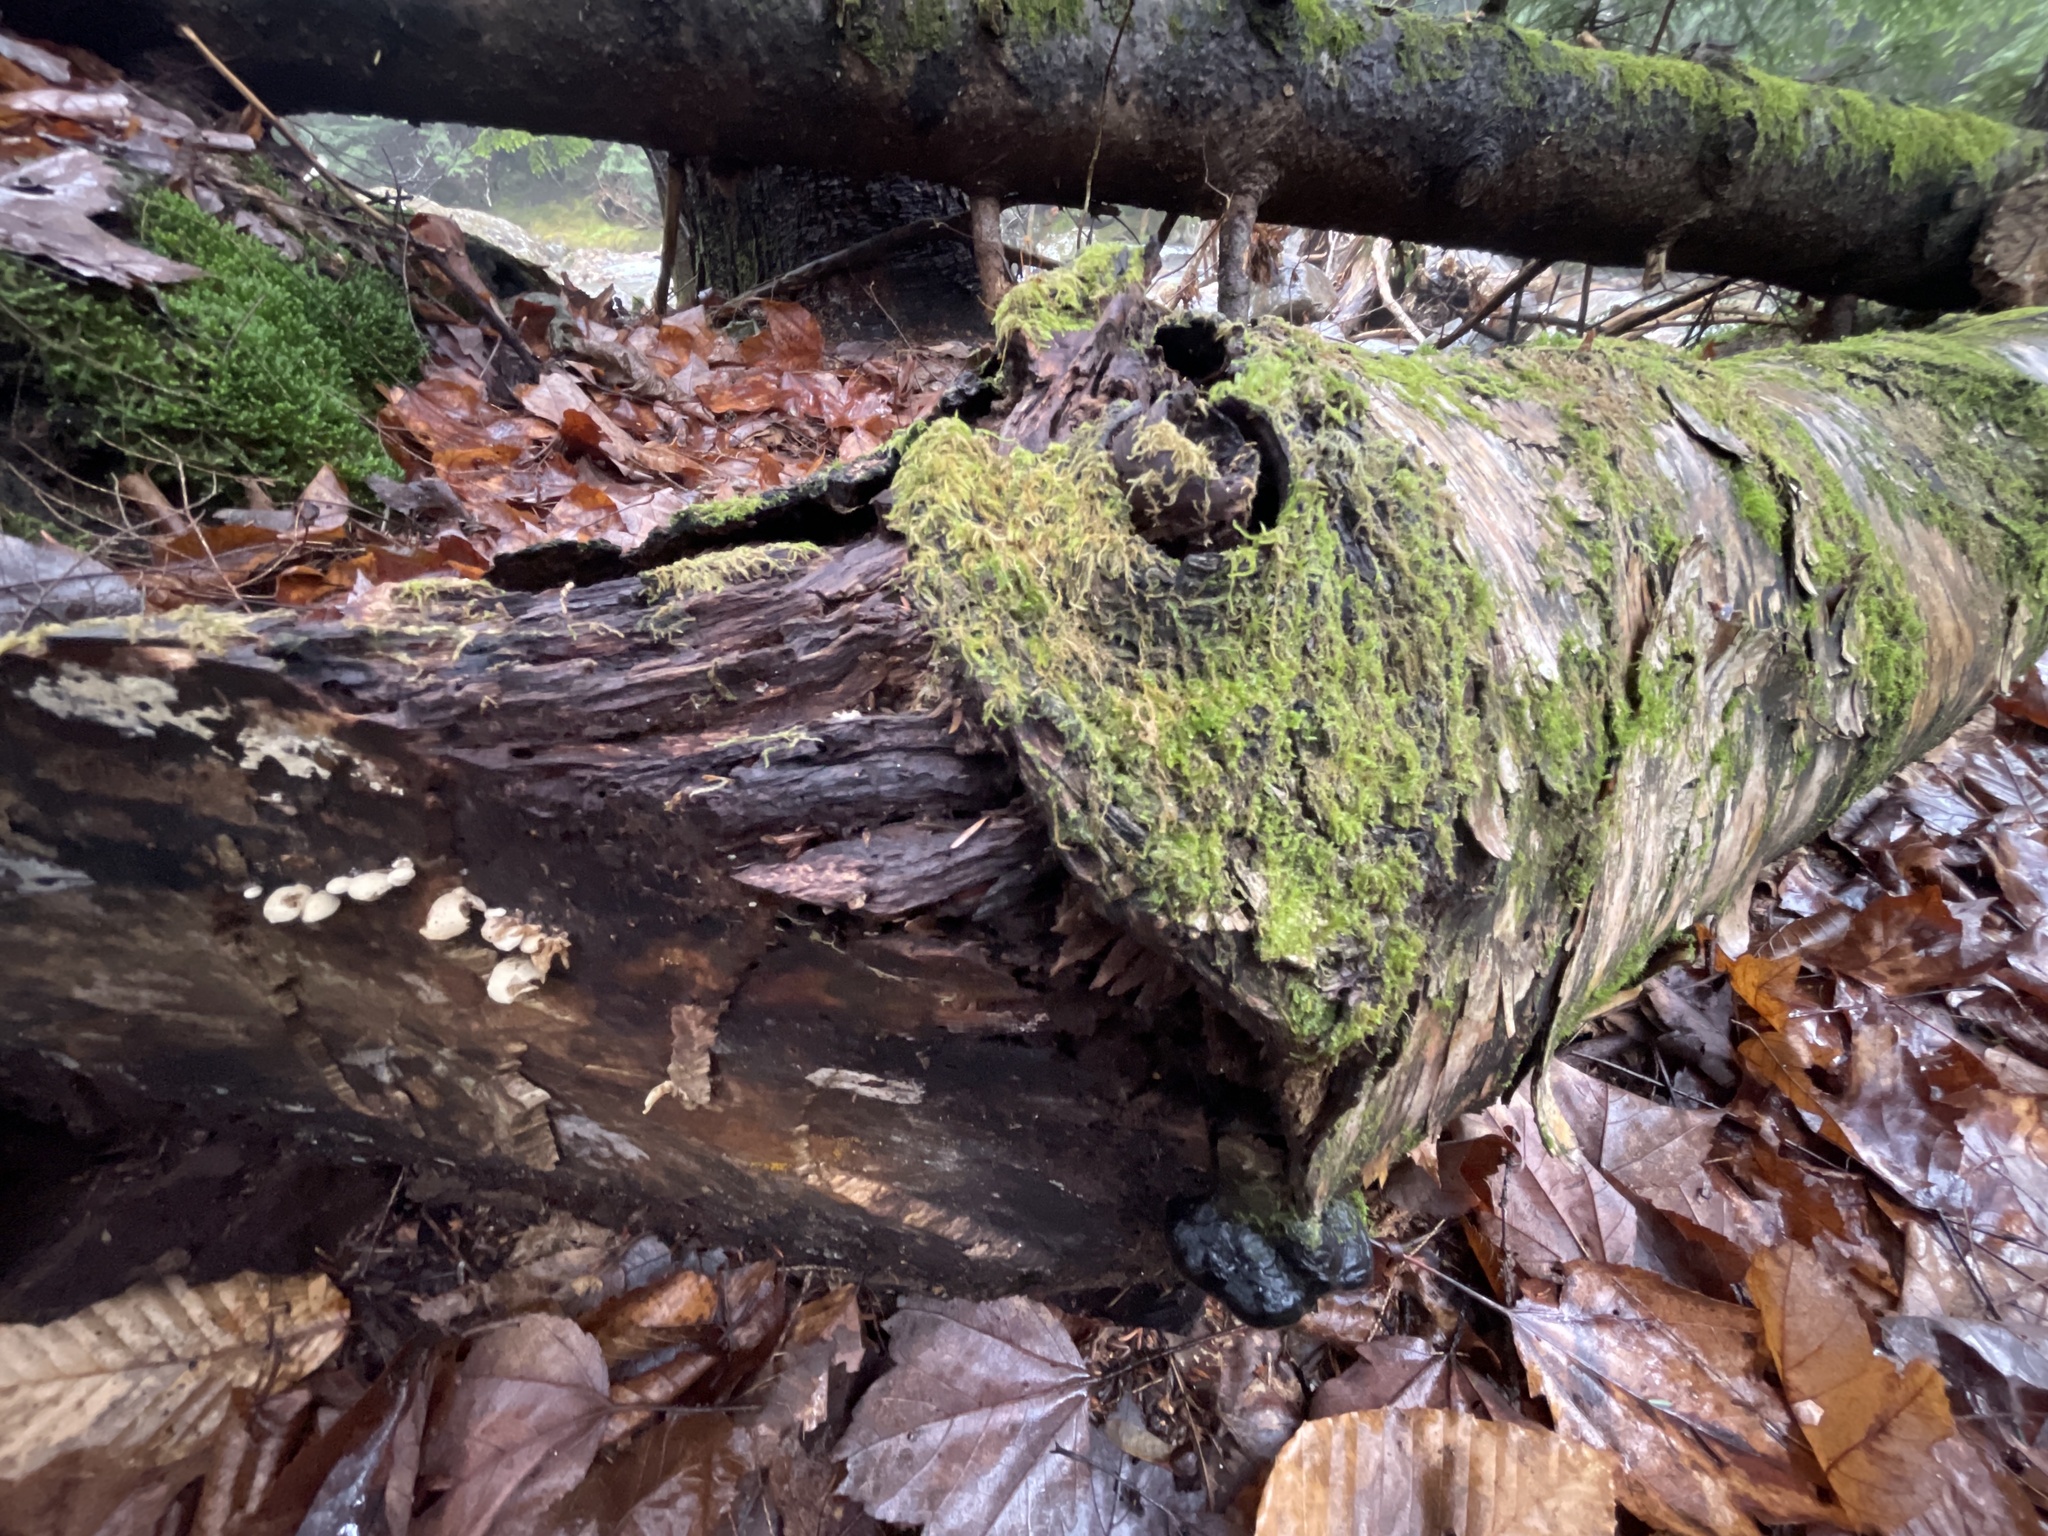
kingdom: Fungi
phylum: Basidiomycota
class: Agaricomycetes
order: Agaricales
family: Mycenaceae
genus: Panellus
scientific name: Panellus stipticus
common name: Bitter oysterling
